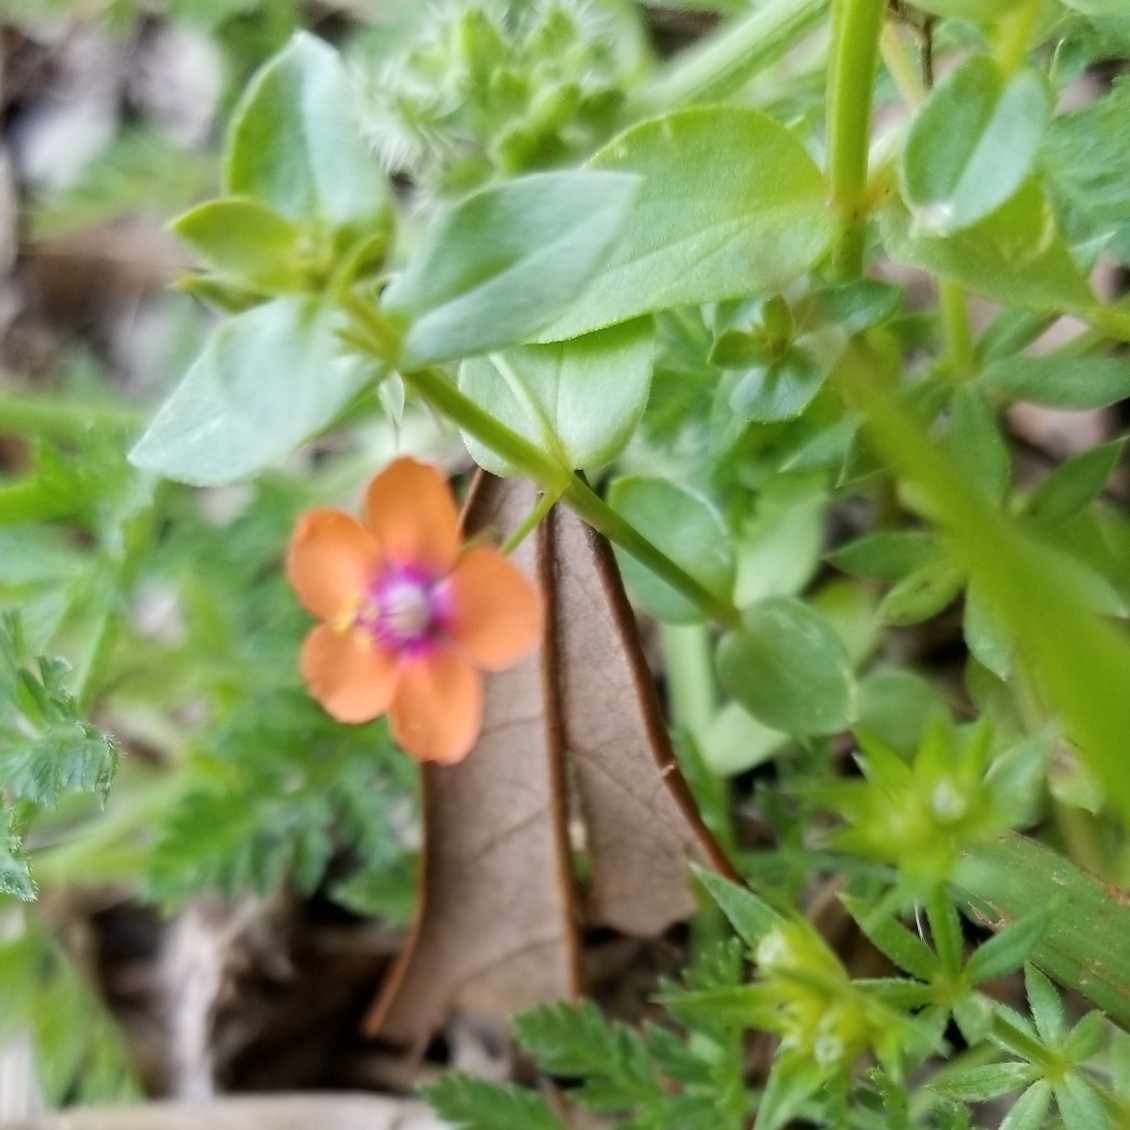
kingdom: Plantae
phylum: Tracheophyta
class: Magnoliopsida
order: Ericales
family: Primulaceae
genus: Lysimachia
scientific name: Lysimachia arvensis
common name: Scarlet pimpernel
